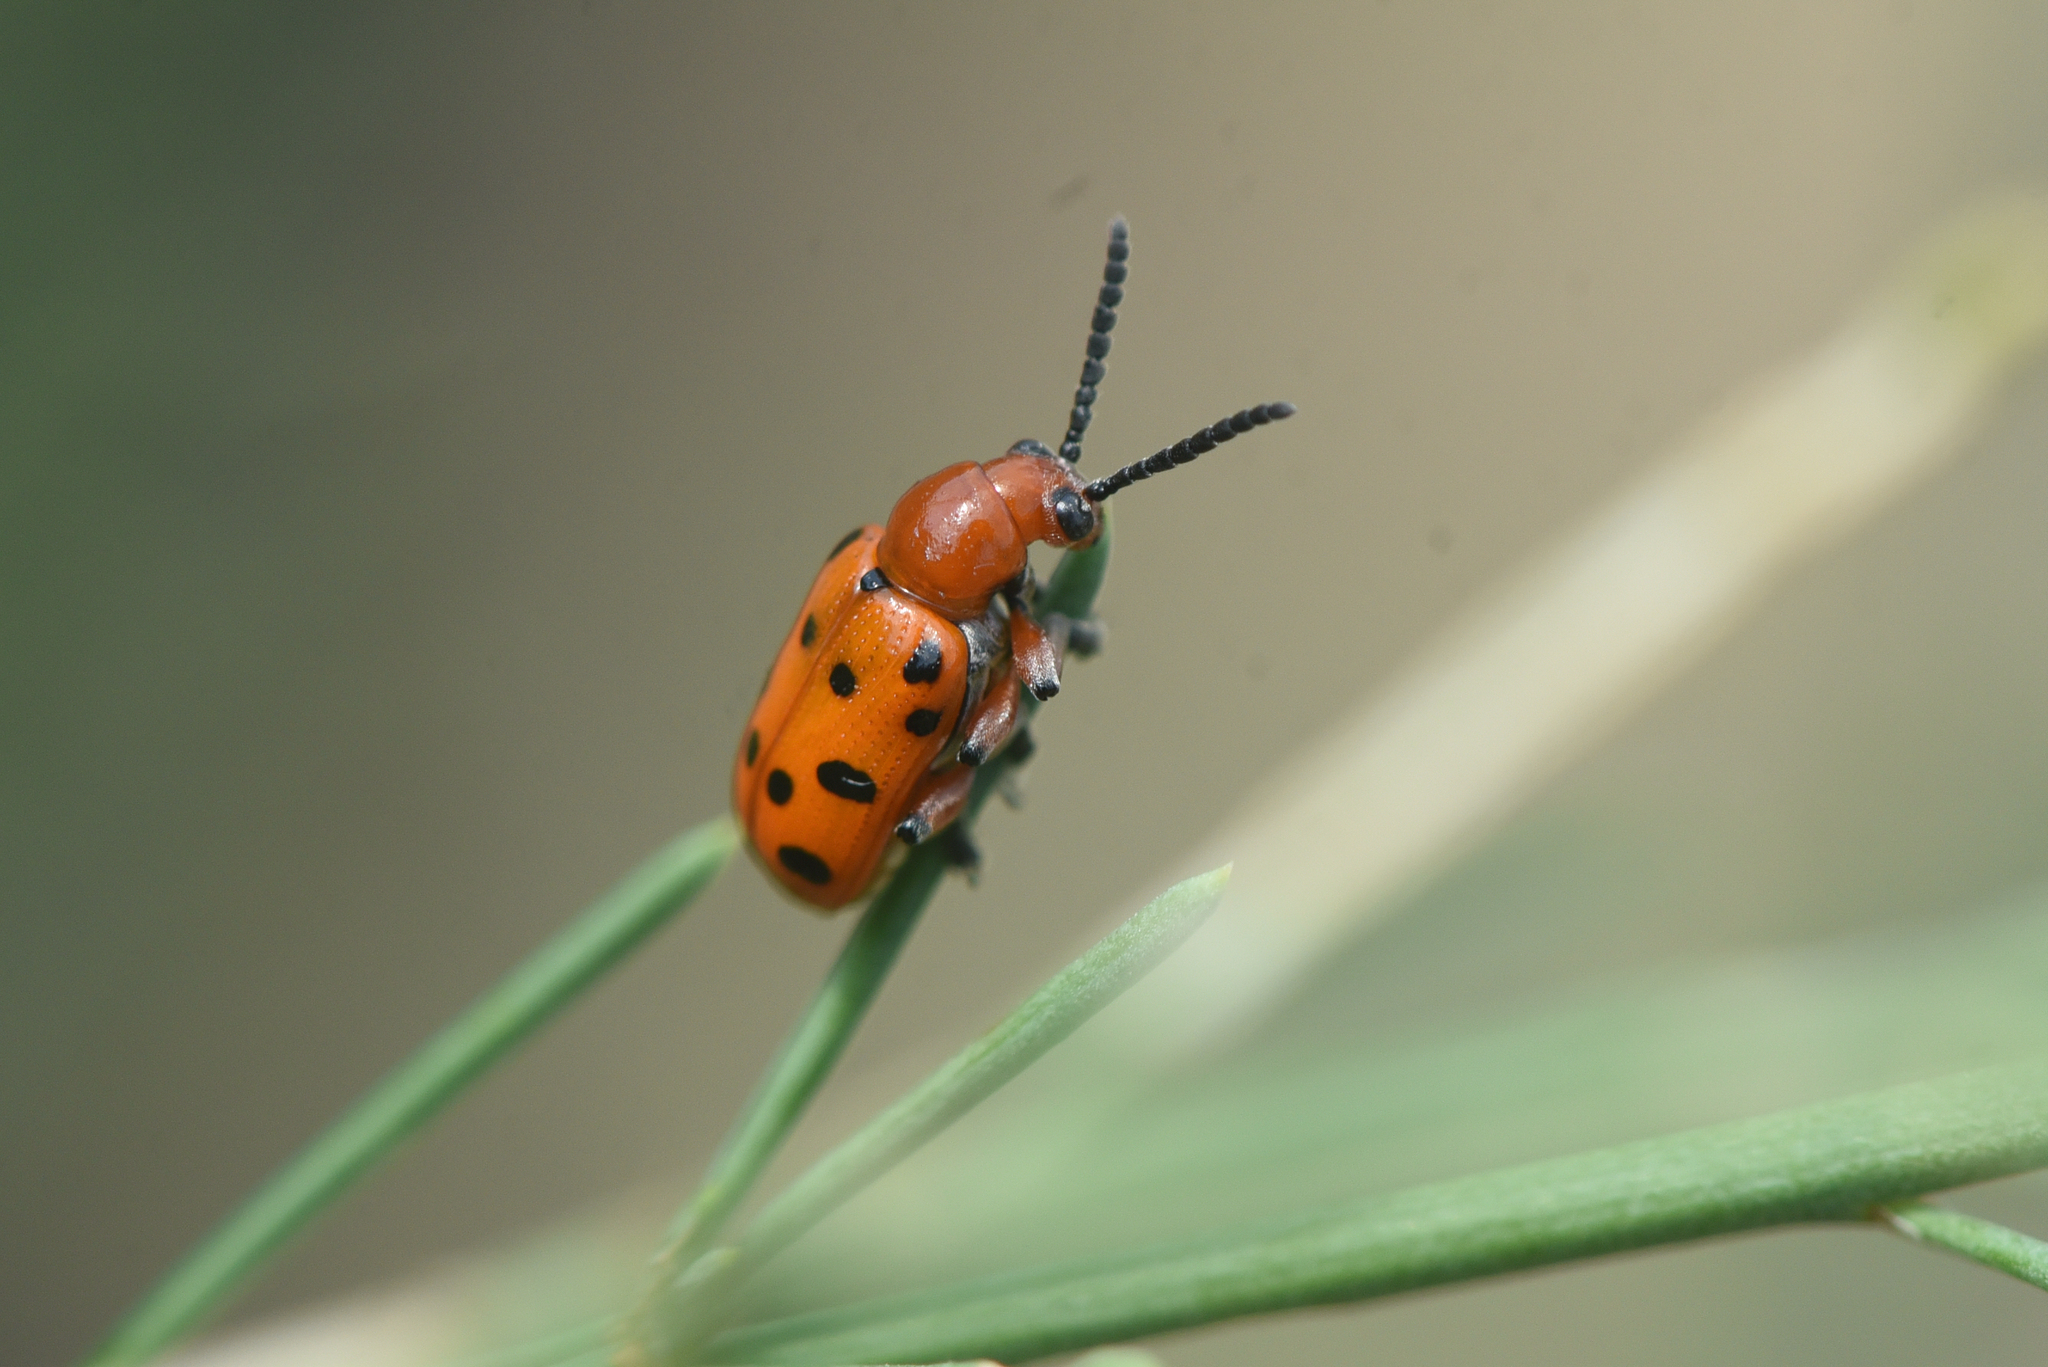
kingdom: Animalia
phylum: Arthropoda
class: Insecta
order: Coleoptera
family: Chrysomelidae
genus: Crioceris
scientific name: Crioceris duodecimpunctata
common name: Twelve-spotted asparagus beetle
